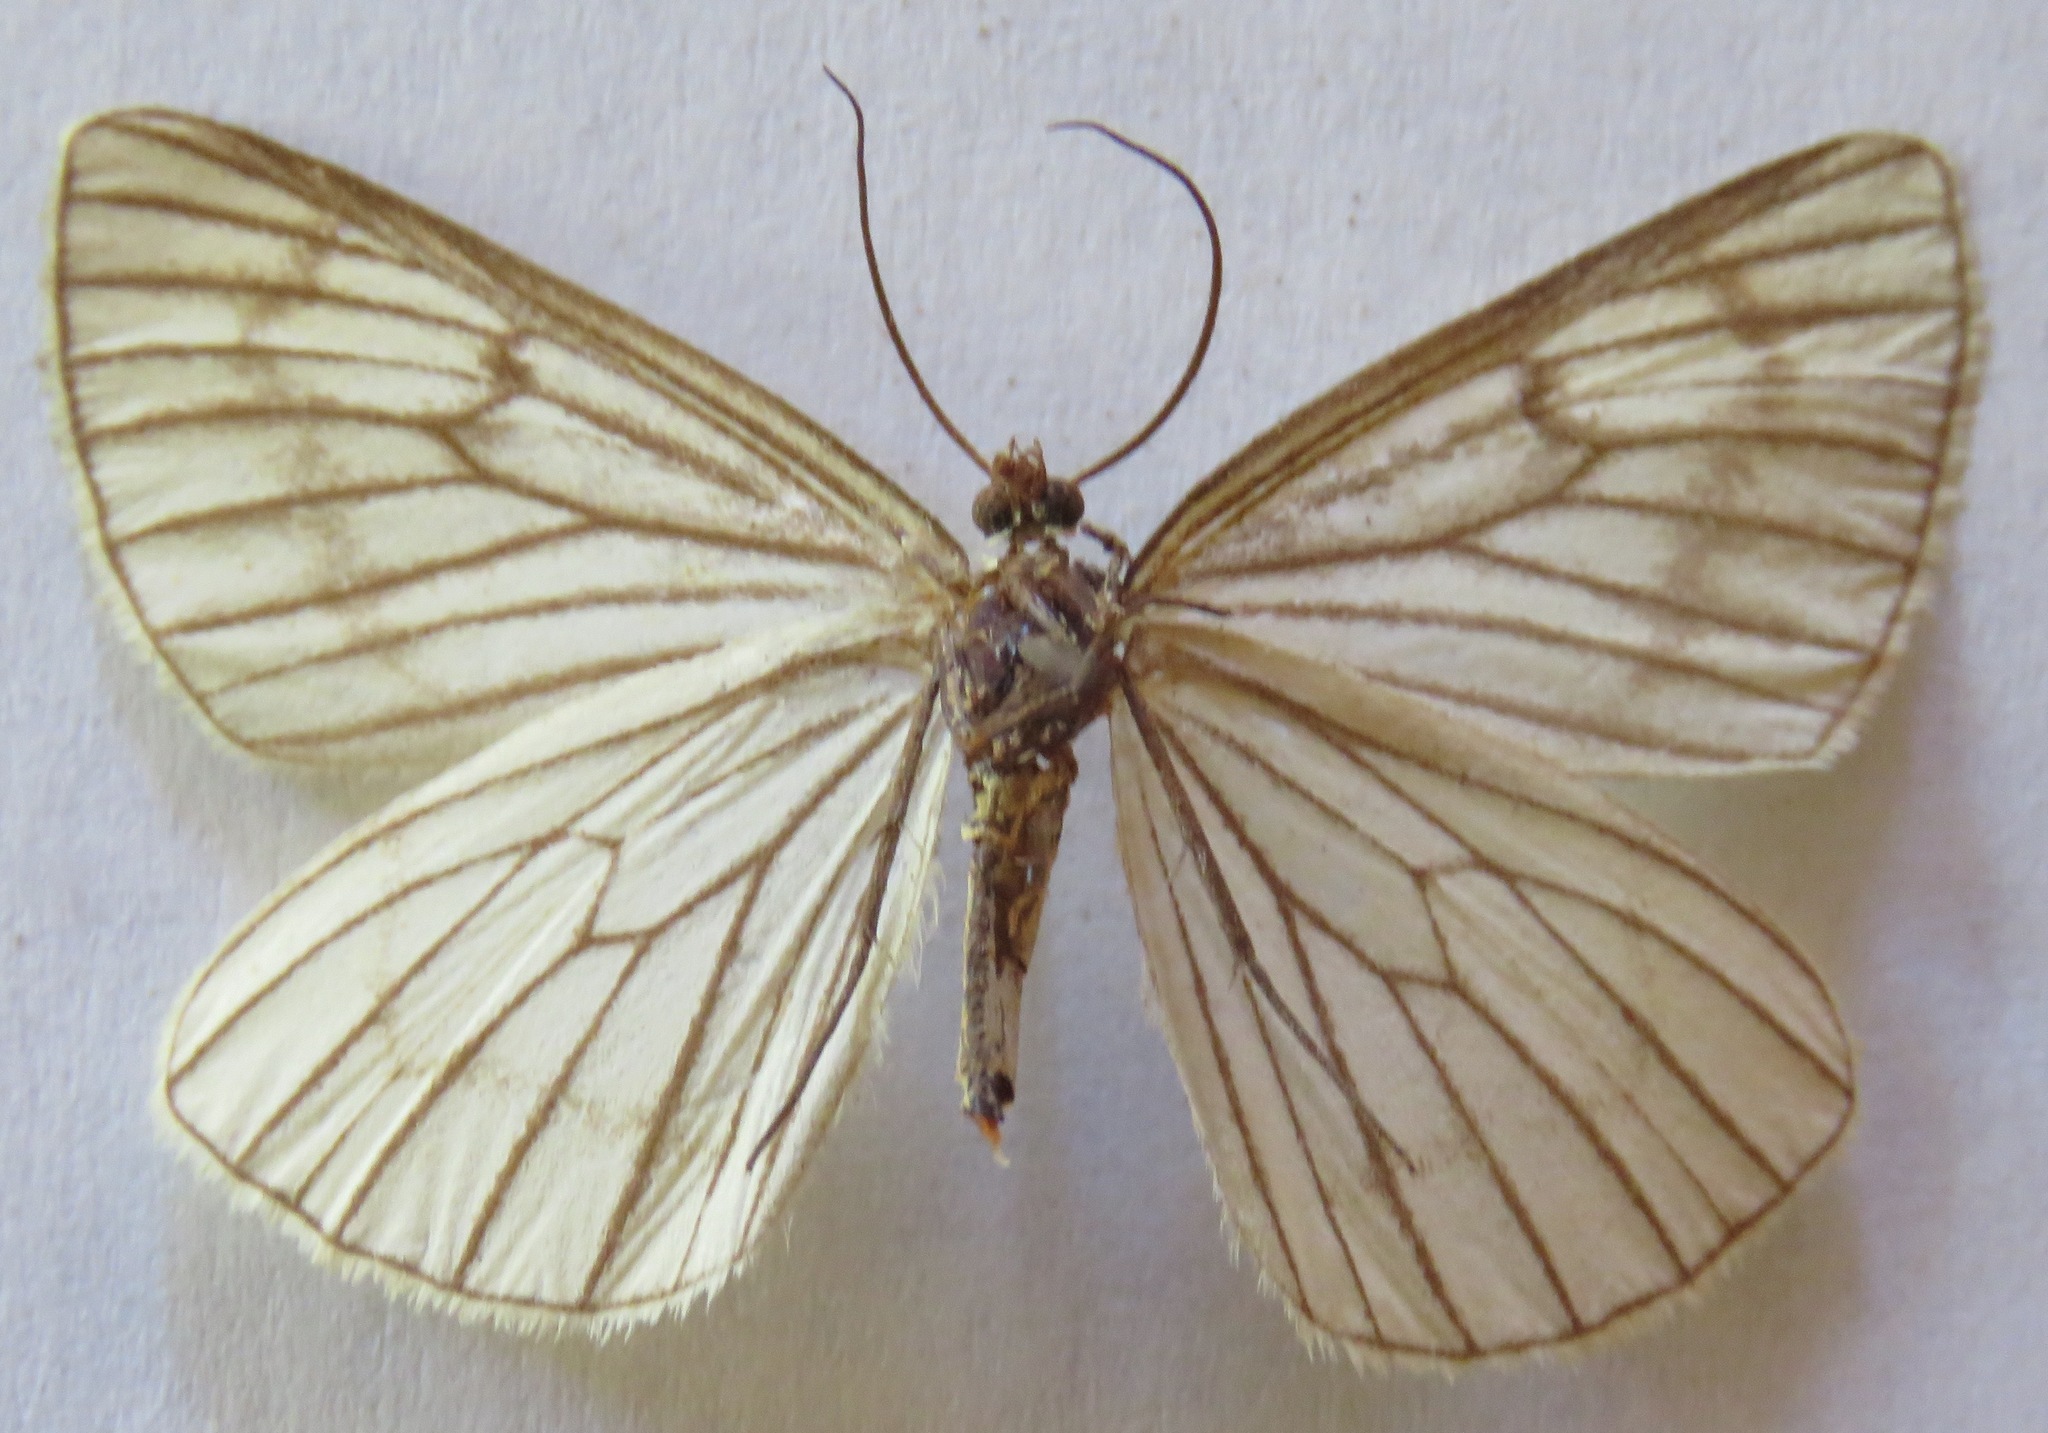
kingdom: Animalia
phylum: Arthropoda
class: Insecta
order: Lepidoptera
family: Geometridae
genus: Siona
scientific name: Siona lineata
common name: Black-veined moth
